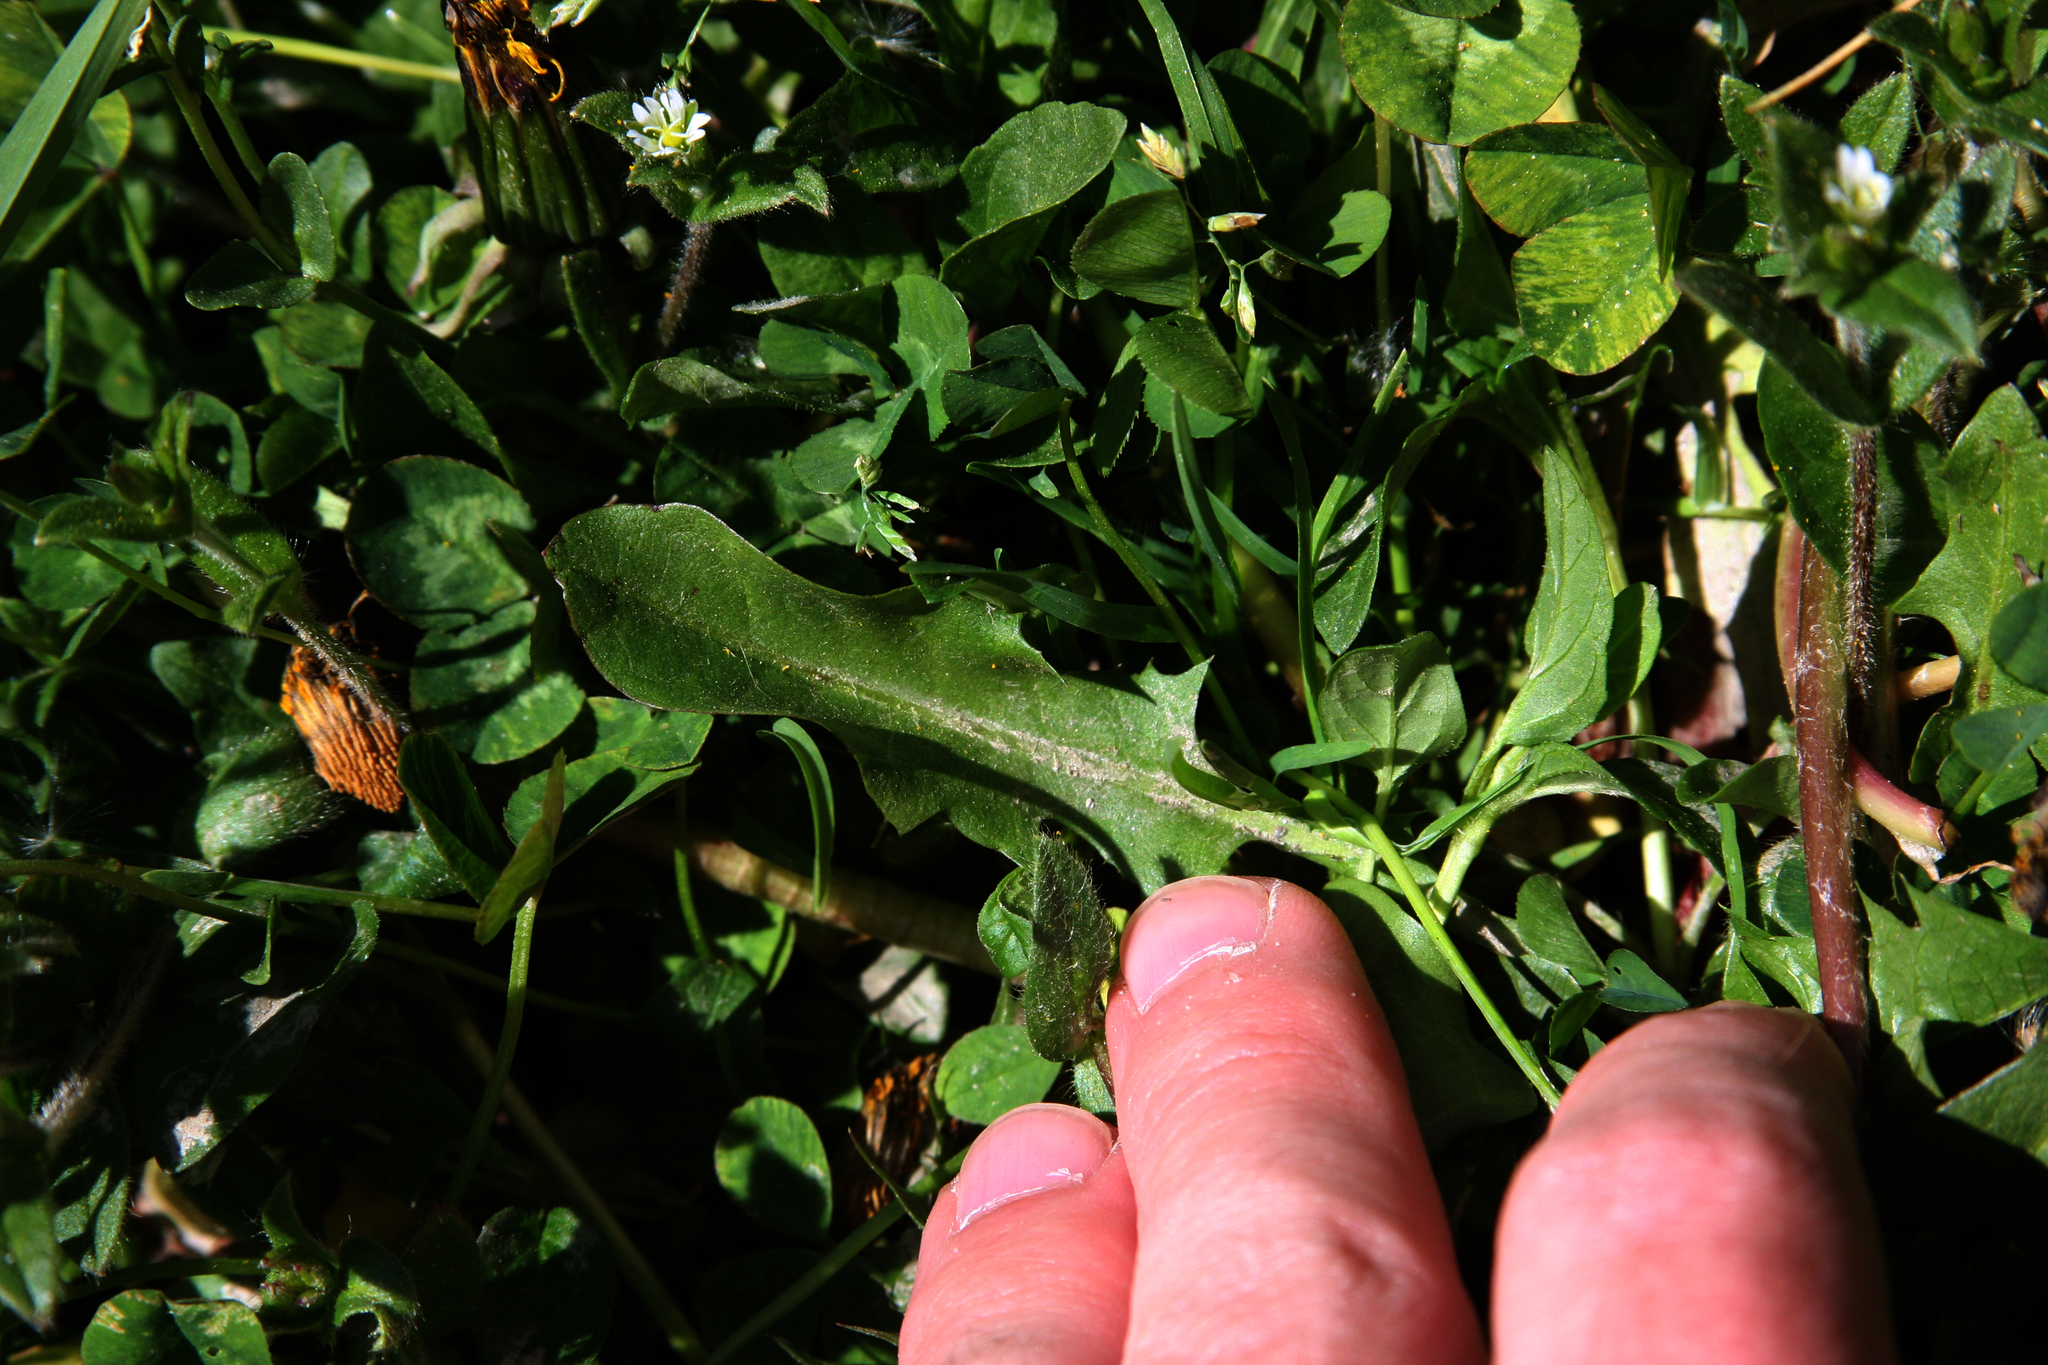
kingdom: Plantae
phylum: Tracheophyta
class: Magnoliopsida
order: Asterales
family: Asteraceae
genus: Taraxacum
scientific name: Taraxacum officinale
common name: Common dandelion
